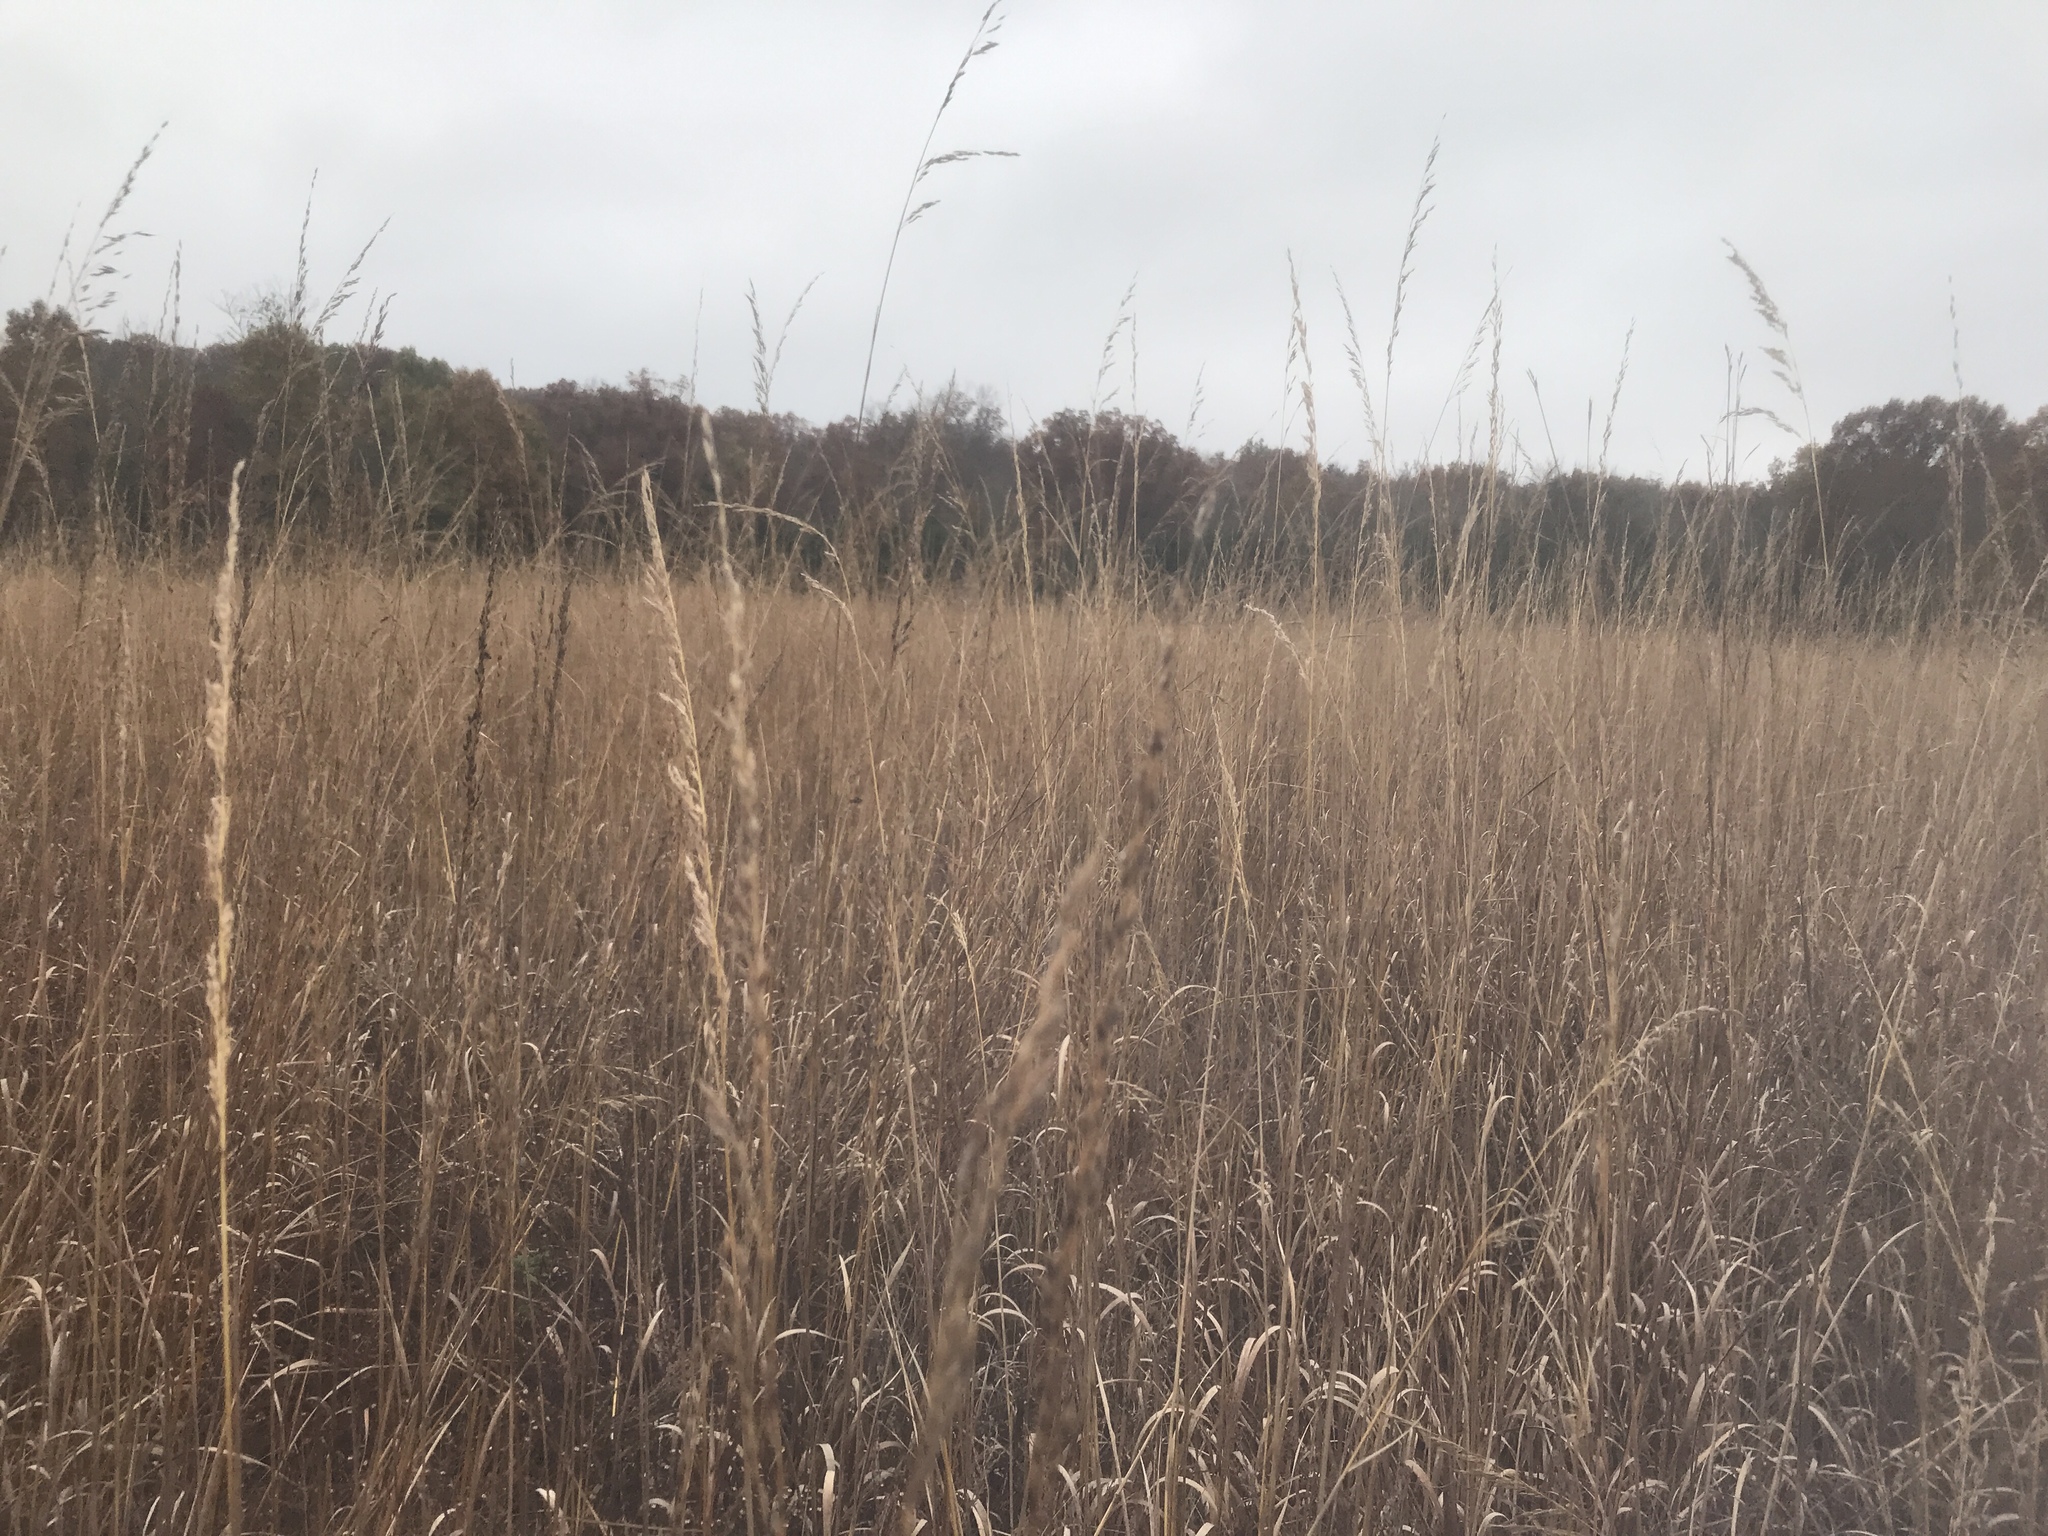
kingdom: Plantae
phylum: Tracheophyta
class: Liliopsida
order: Poales
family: Poaceae
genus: Sorghastrum
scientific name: Sorghastrum nutans
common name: Indian grass
